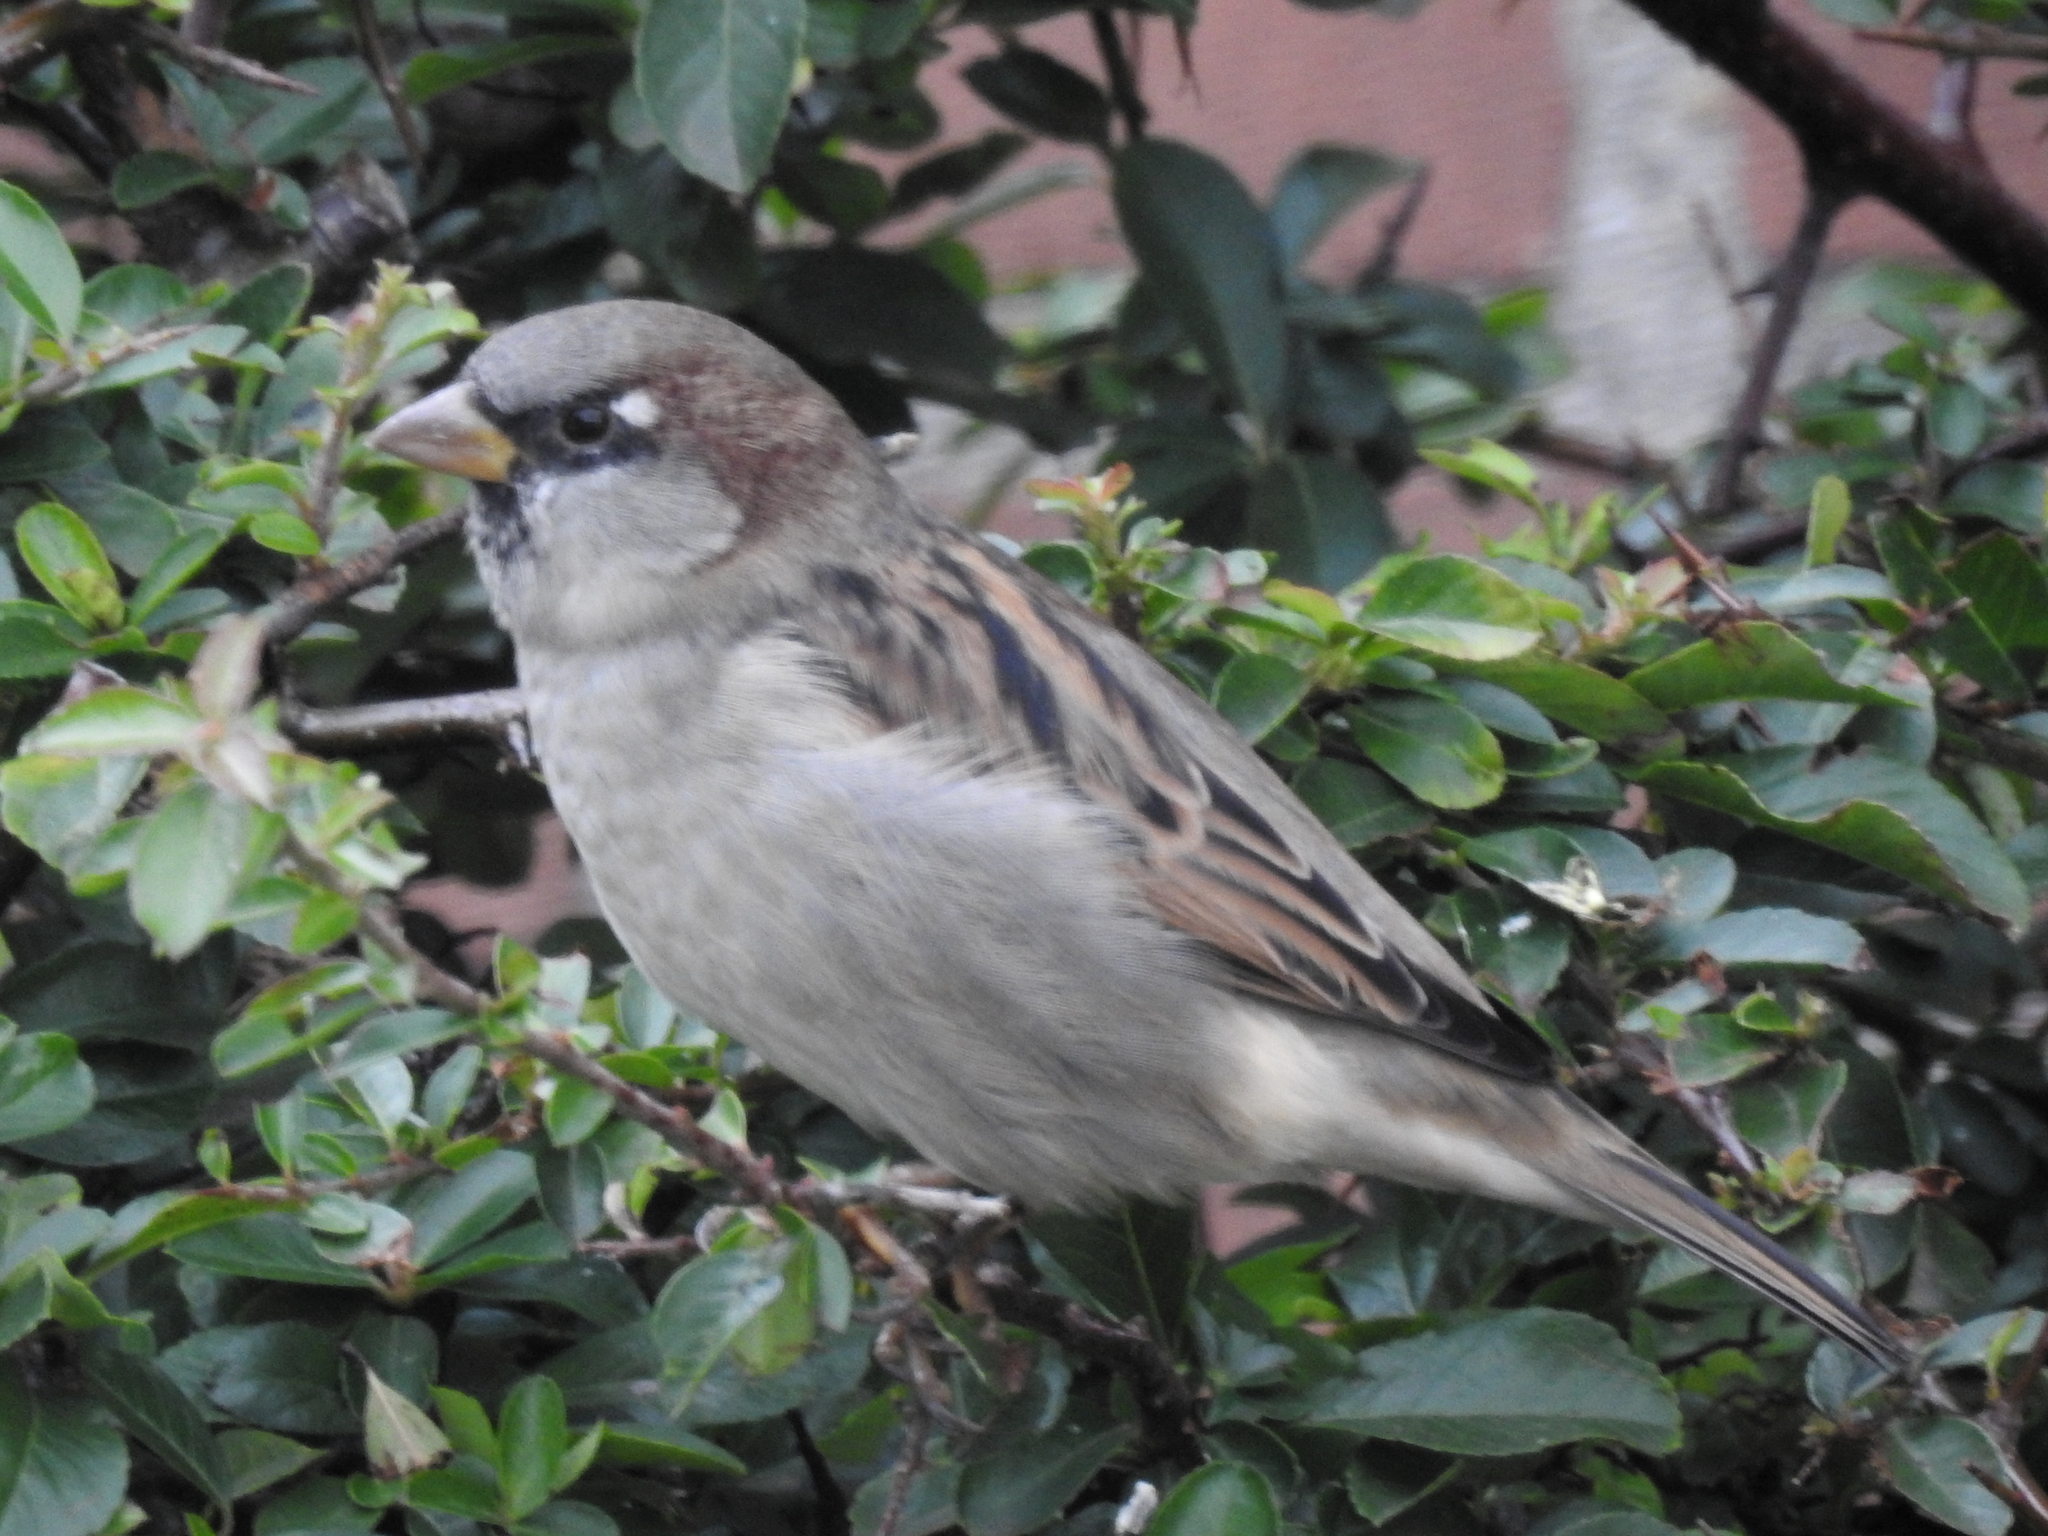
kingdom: Animalia
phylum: Chordata
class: Aves
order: Passeriformes
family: Passeridae
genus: Passer
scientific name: Passer domesticus
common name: House sparrow
